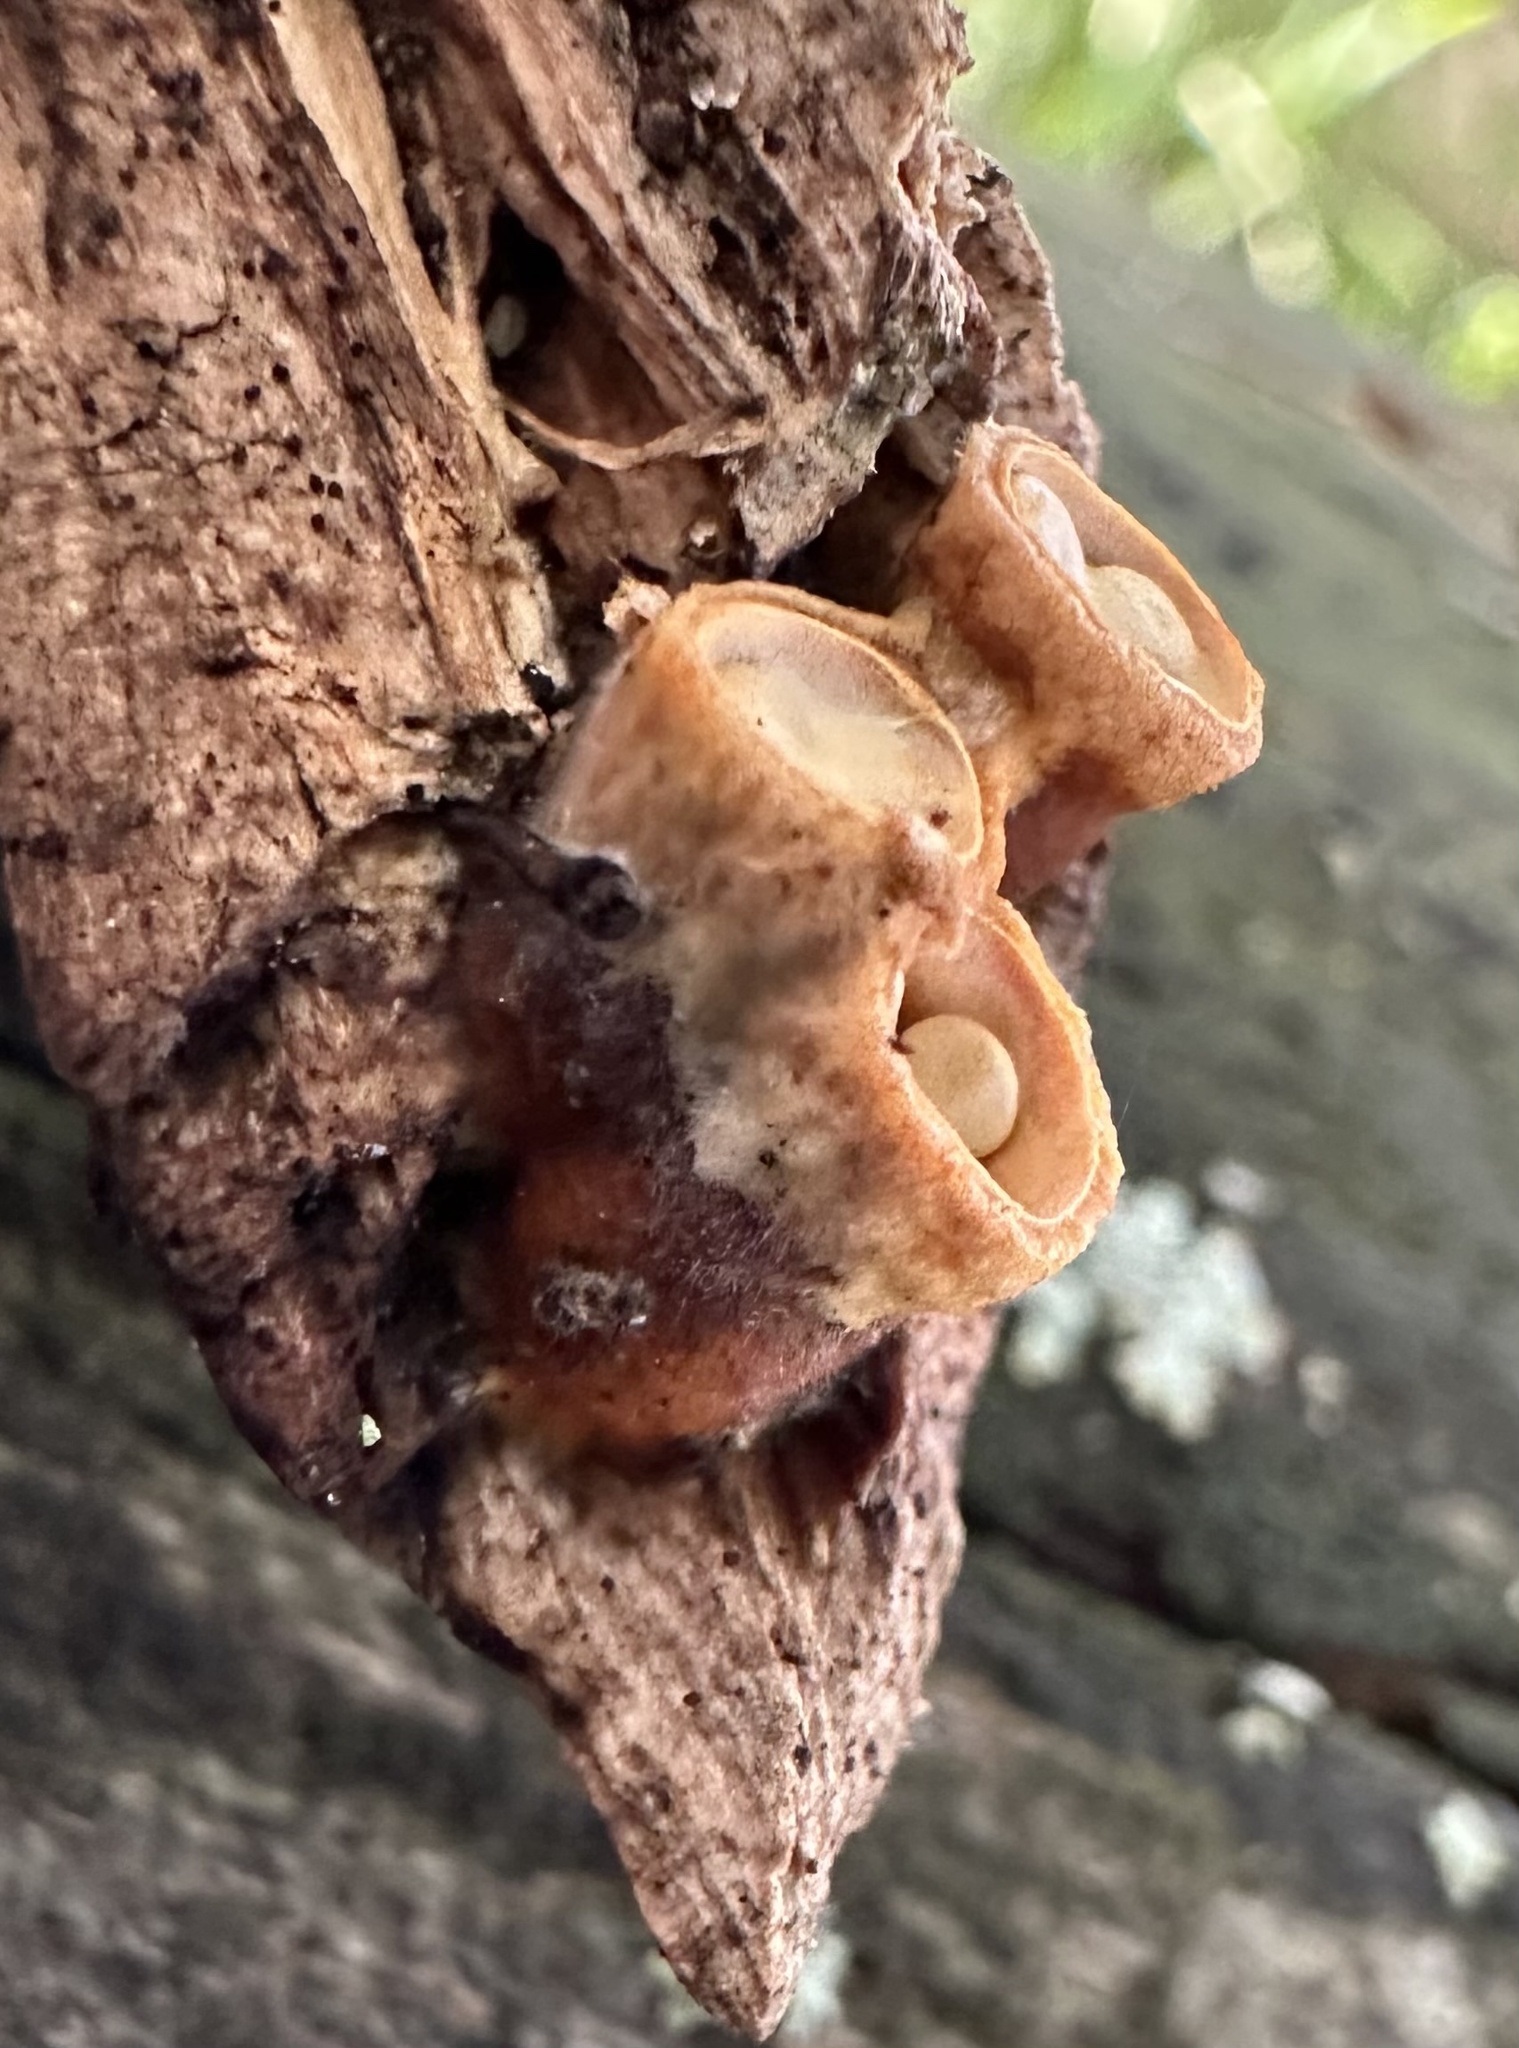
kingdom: Fungi
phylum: Basidiomycota
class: Agaricomycetes
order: Agaricales
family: Nidulariaceae
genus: Crucibulum
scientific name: Crucibulum laeve
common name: Common bird's nest
